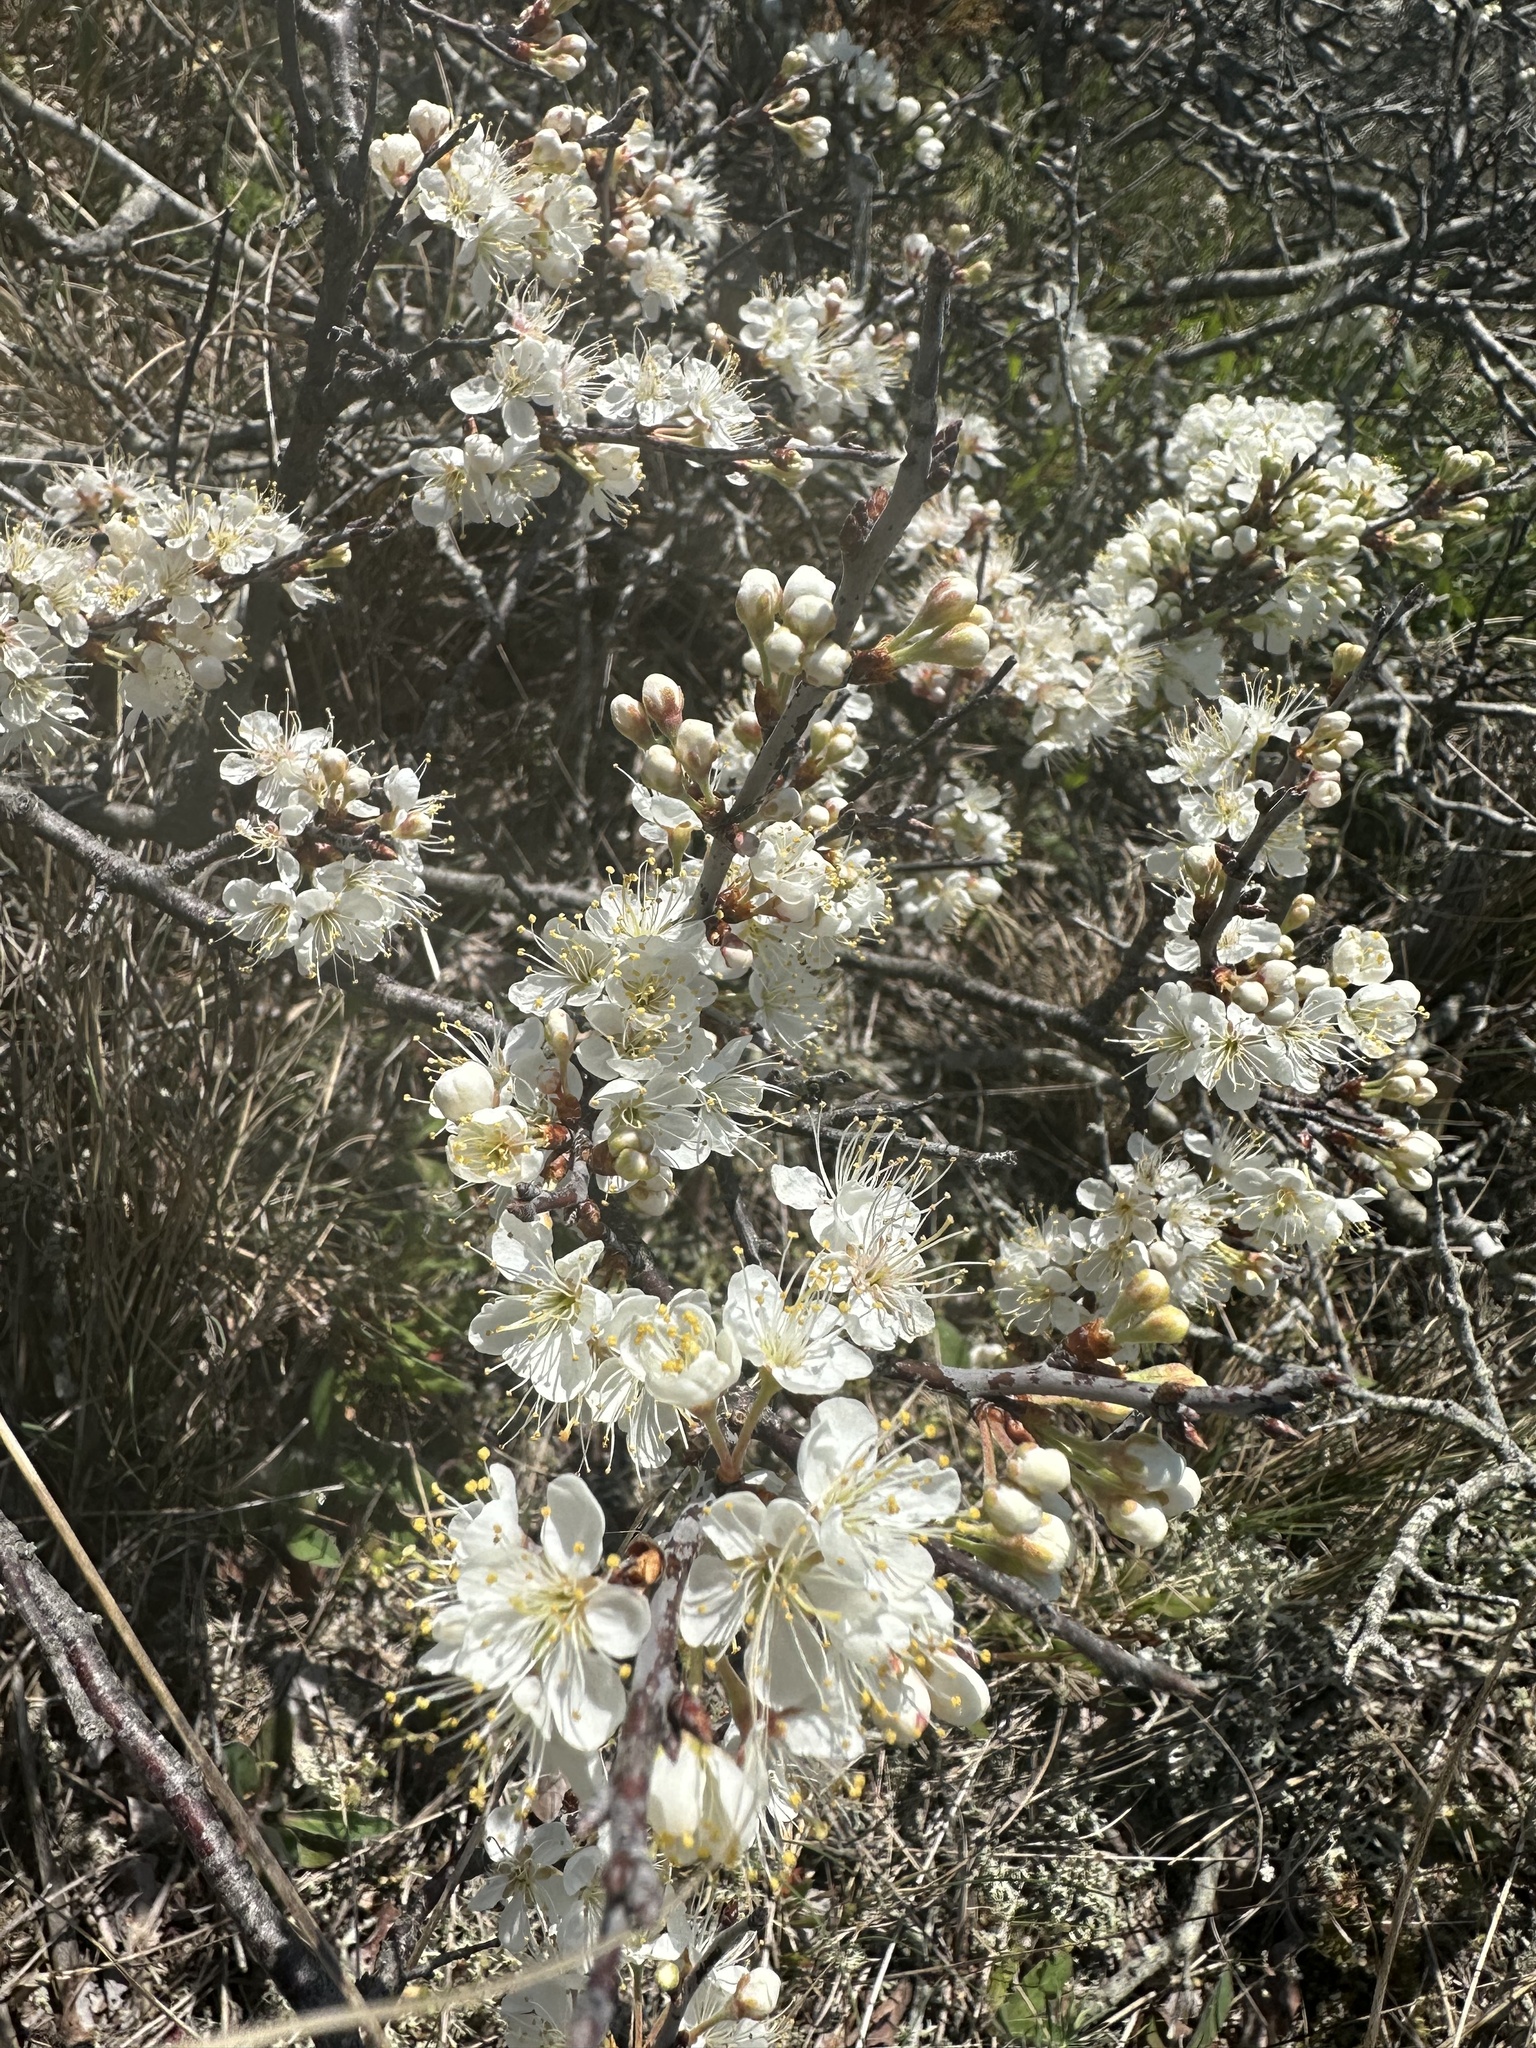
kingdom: Plantae
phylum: Tracheophyta
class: Magnoliopsida
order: Rosales
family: Rosaceae
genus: Prunus
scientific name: Prunus maritima
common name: Beach plum
